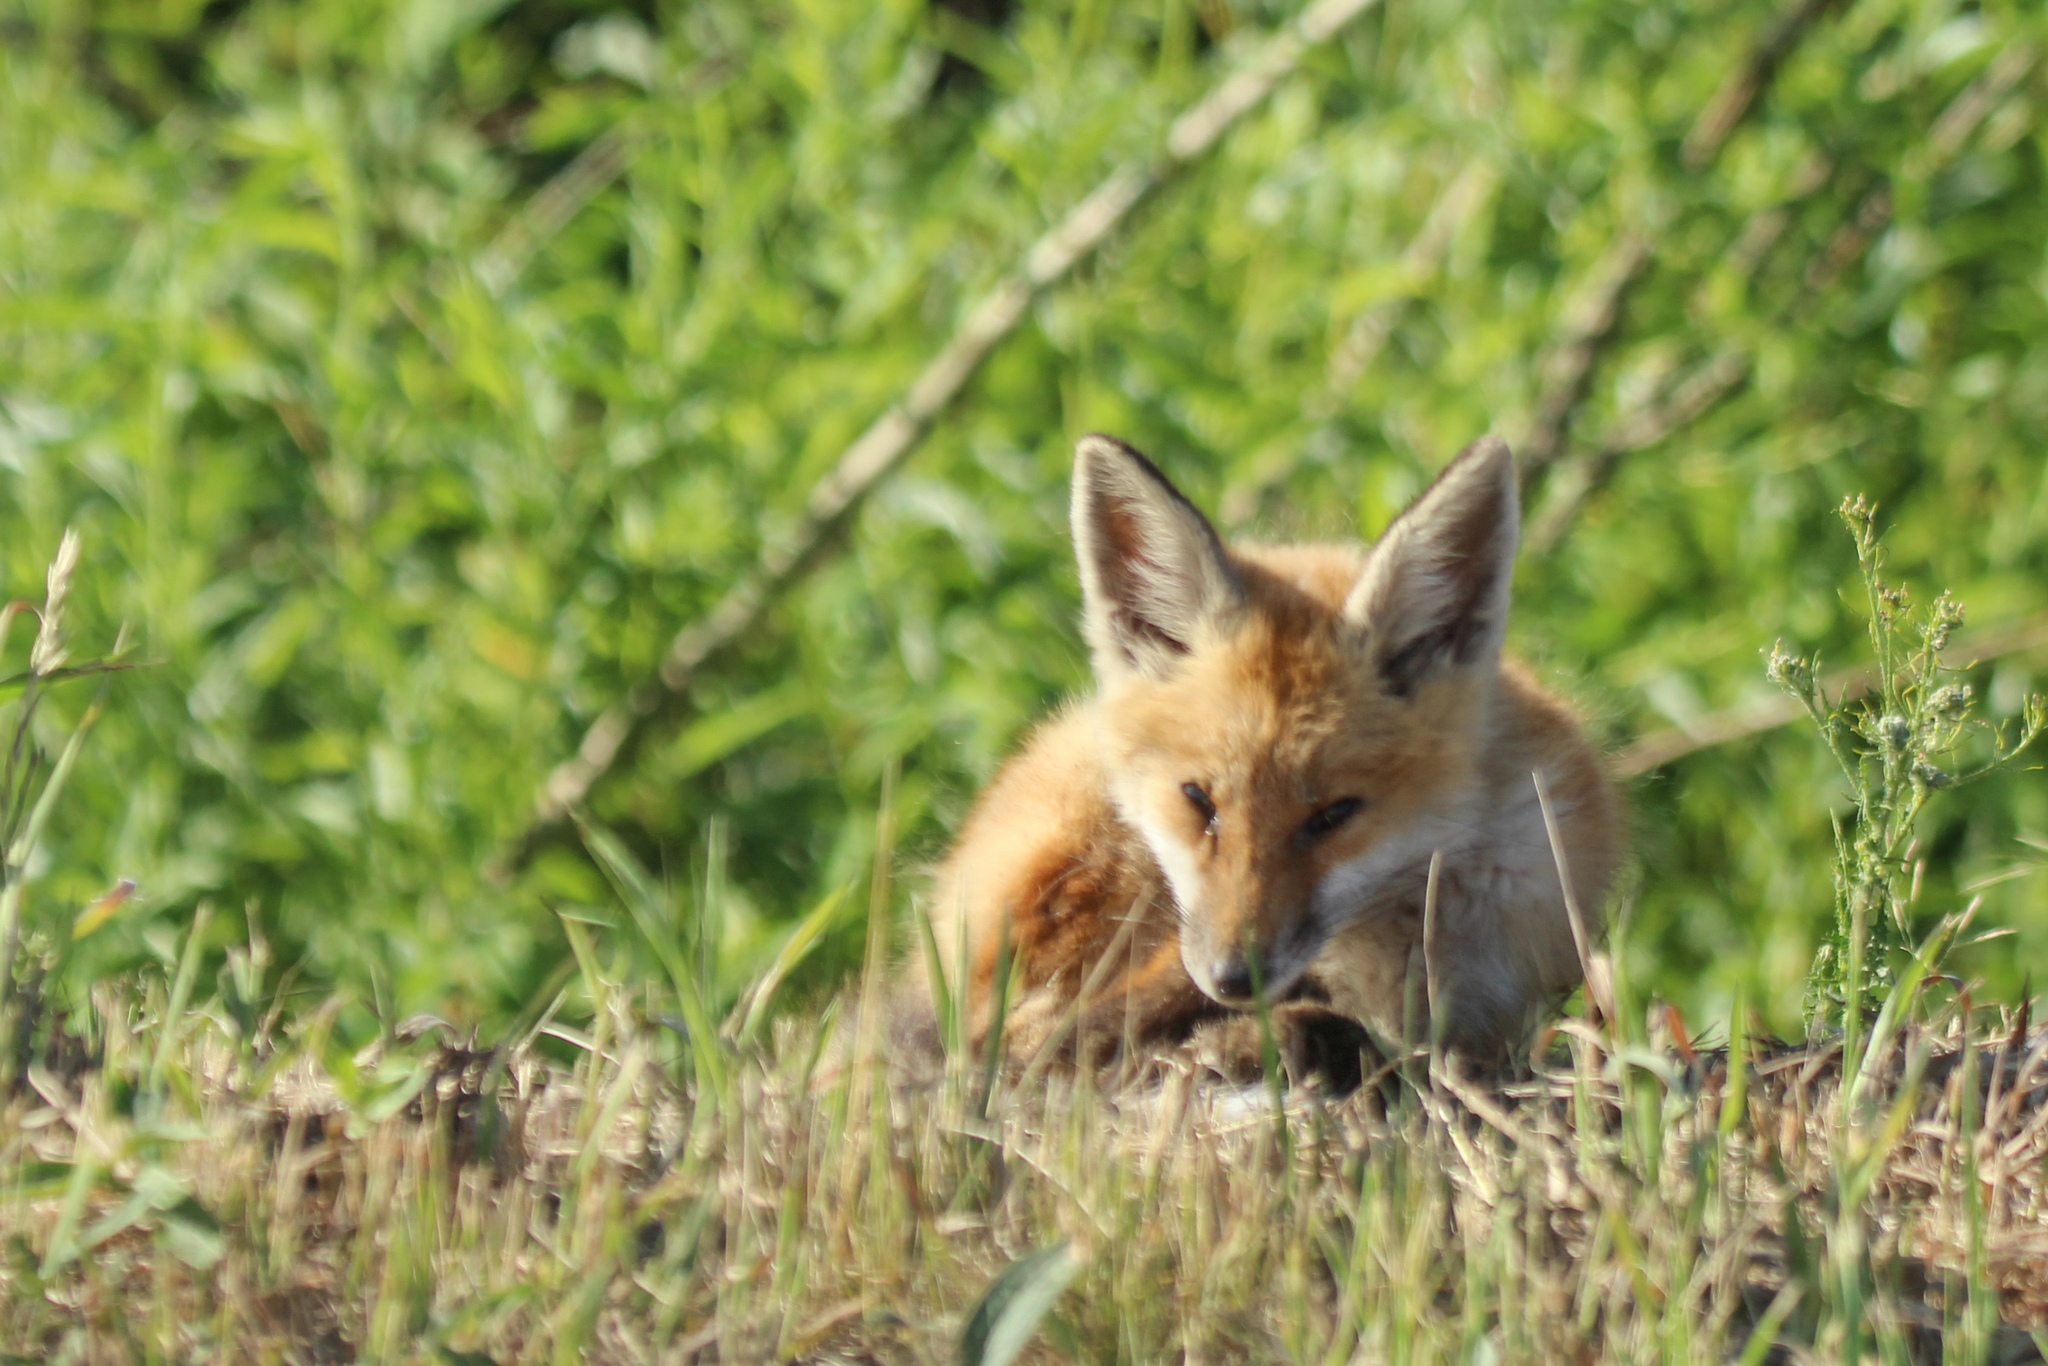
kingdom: Animalia
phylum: Chordata
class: Mammalia
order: Carnivora
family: Canidae
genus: Vulpes
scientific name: Vulpes vulpes
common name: Red fox
